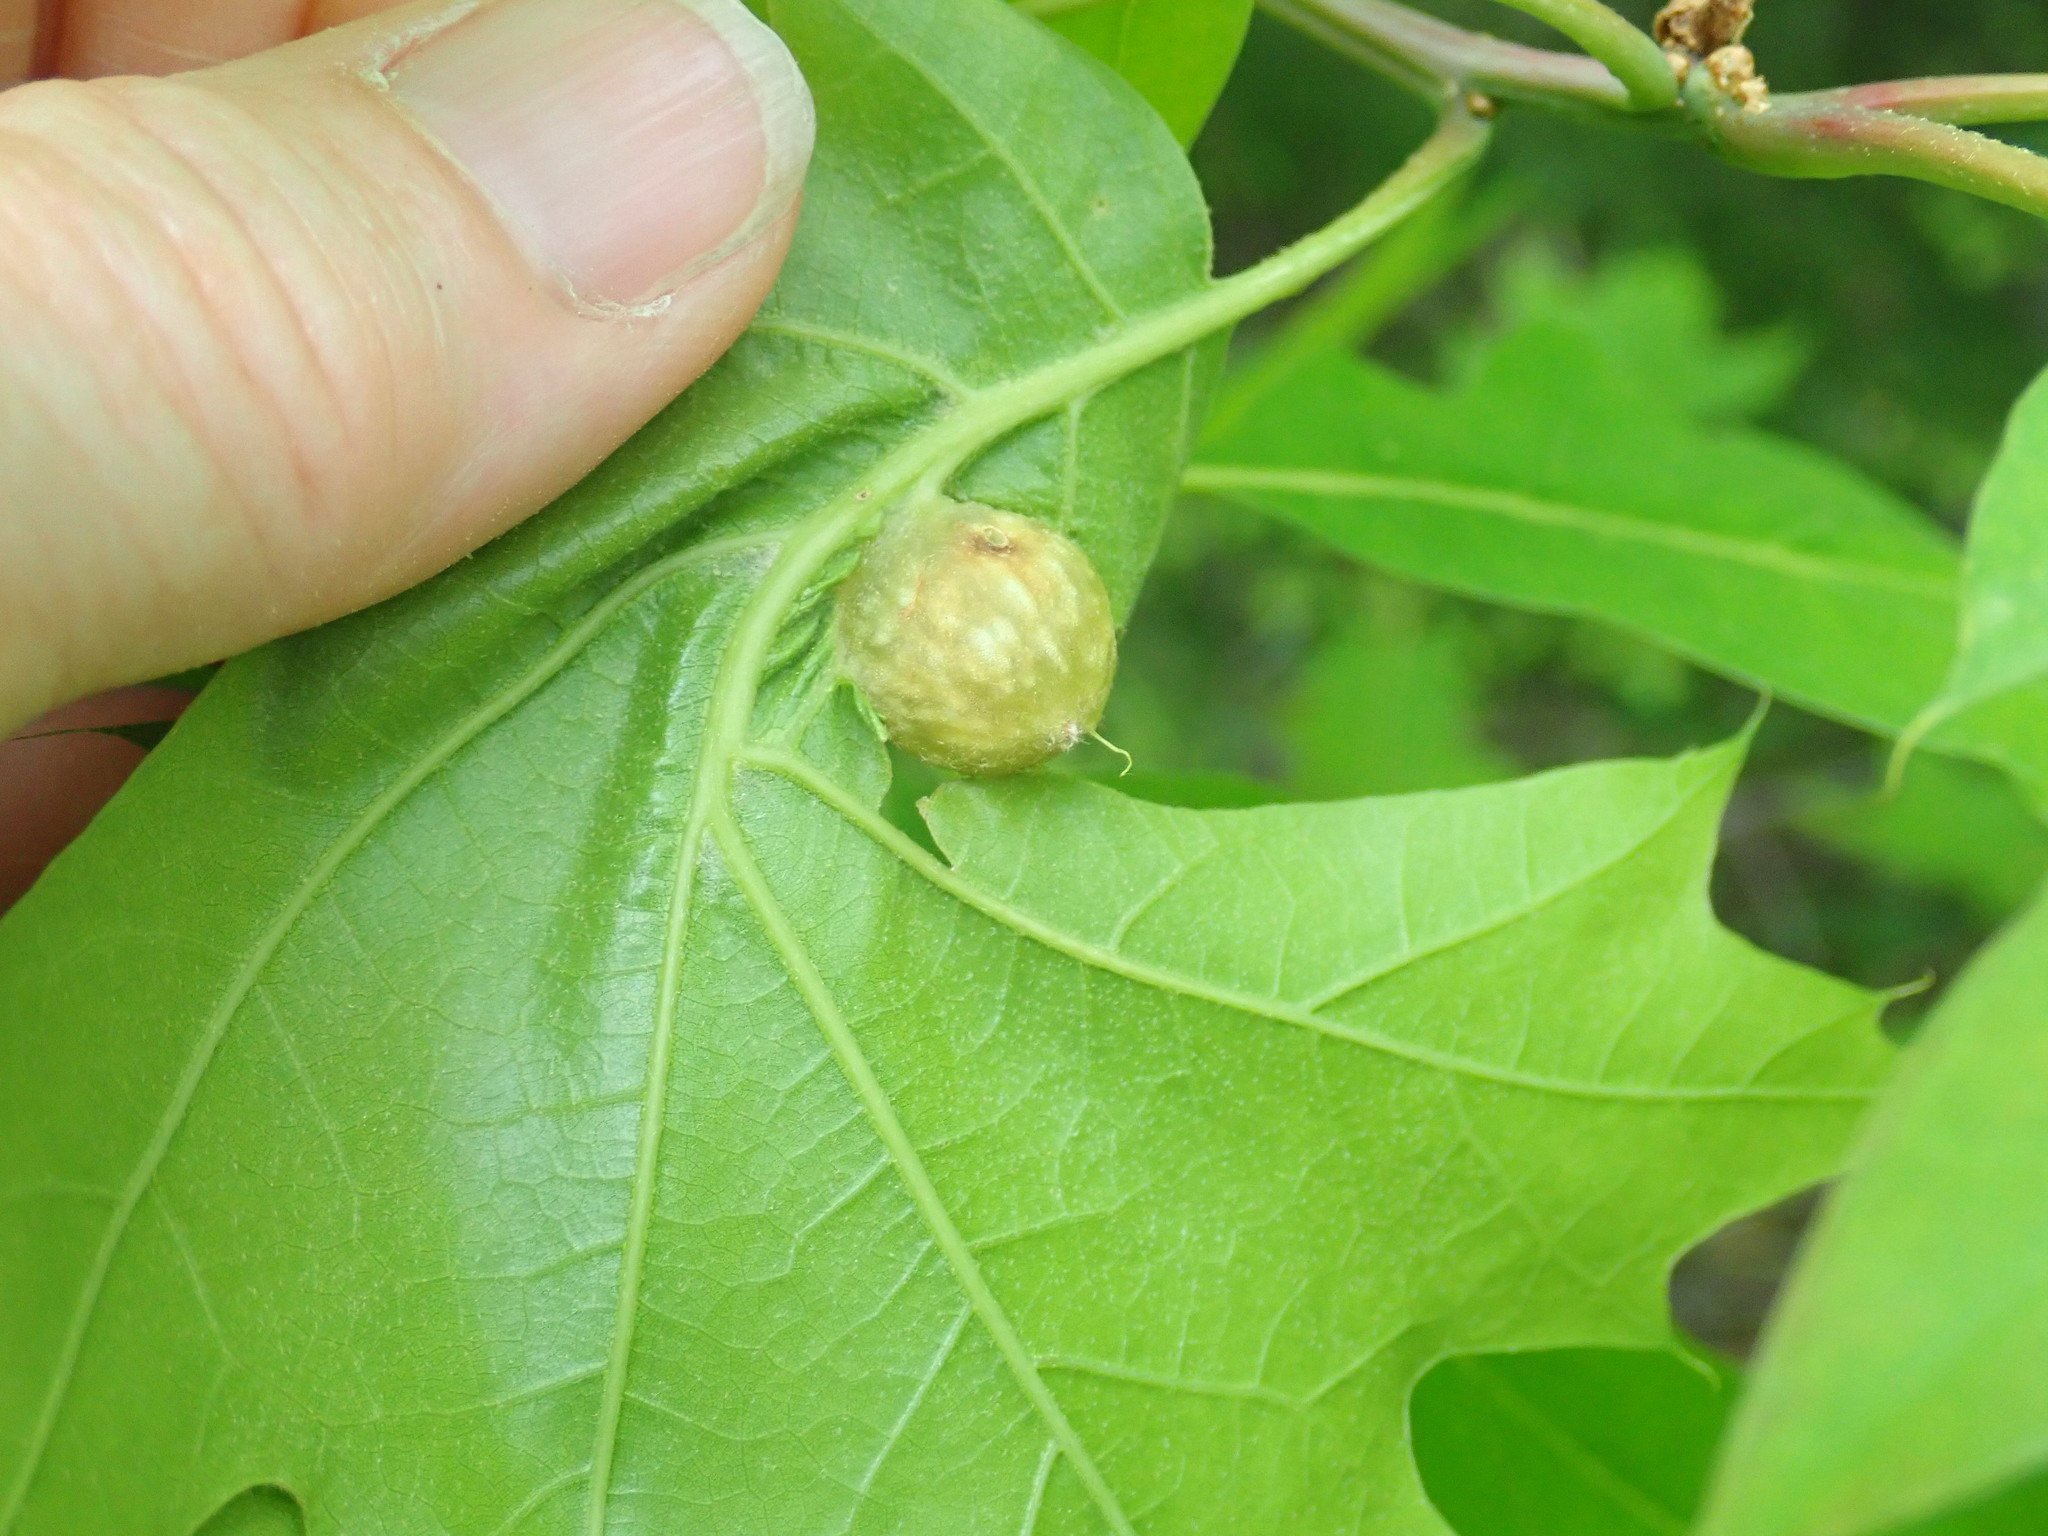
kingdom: Animalia
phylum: Arthropoda
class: Insecta
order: Hymenoptera
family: Cynipidae
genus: Dryocosmus
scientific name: Dryocosmus quercuspalustris
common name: Succulent oak gall wasp
